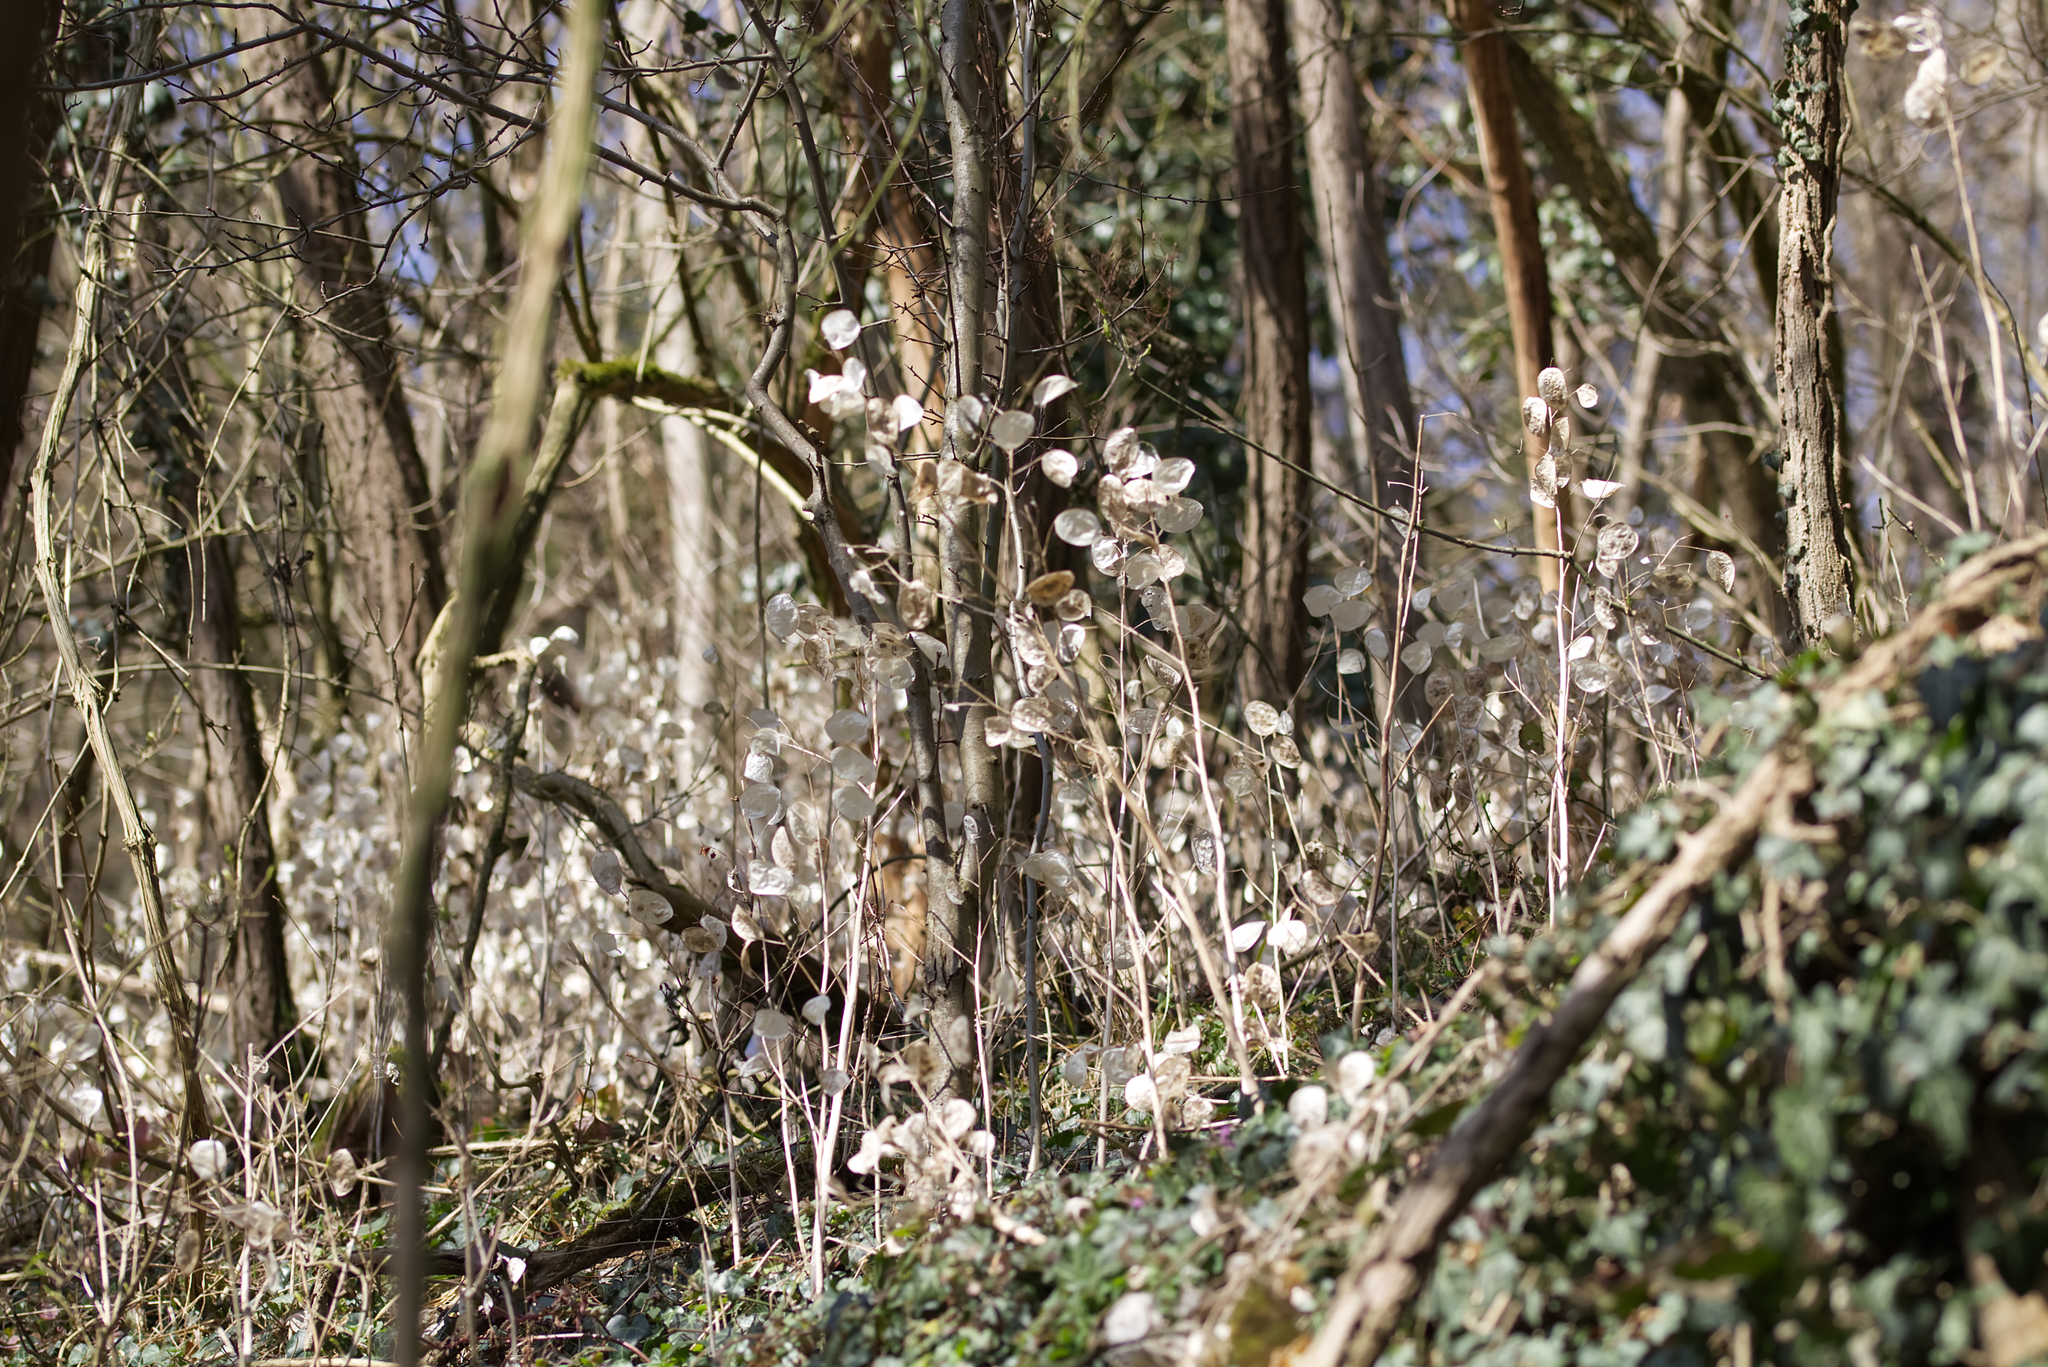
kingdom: Plantae
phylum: Tracheophyta
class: Magnoliopsida
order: Brassicales
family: Brassicaceae
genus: Lunaria
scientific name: Lunaria annua
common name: Honesty
